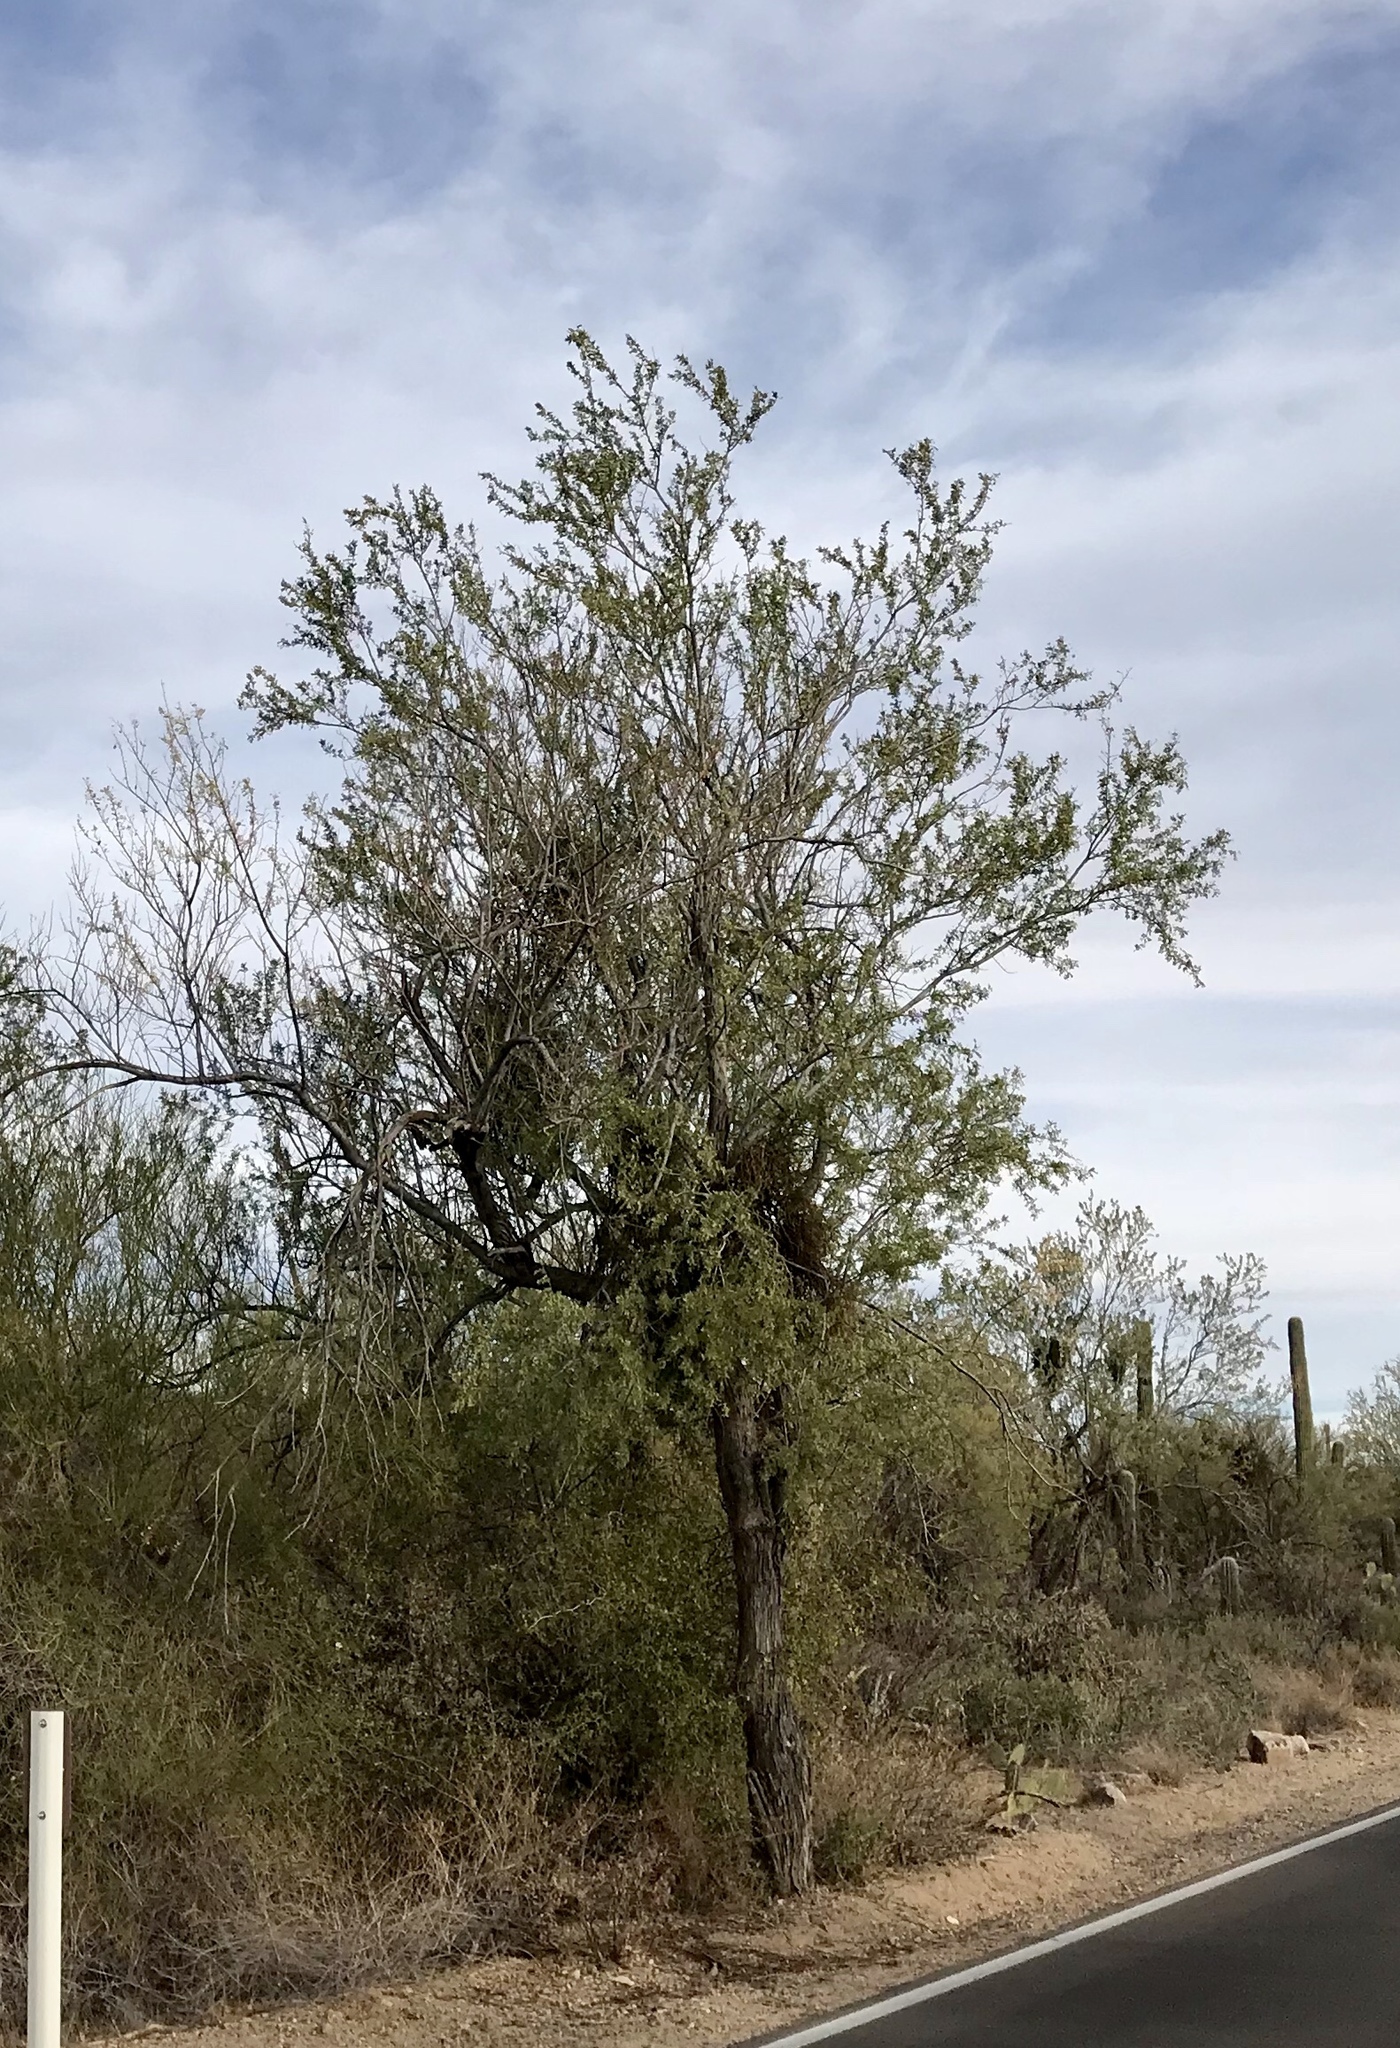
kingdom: Plantae
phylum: Tracheophyta
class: Magnoliopsida
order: Fabales
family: Fabaceae
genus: Olneya
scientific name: Olneya tesota
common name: Desert ironwood
